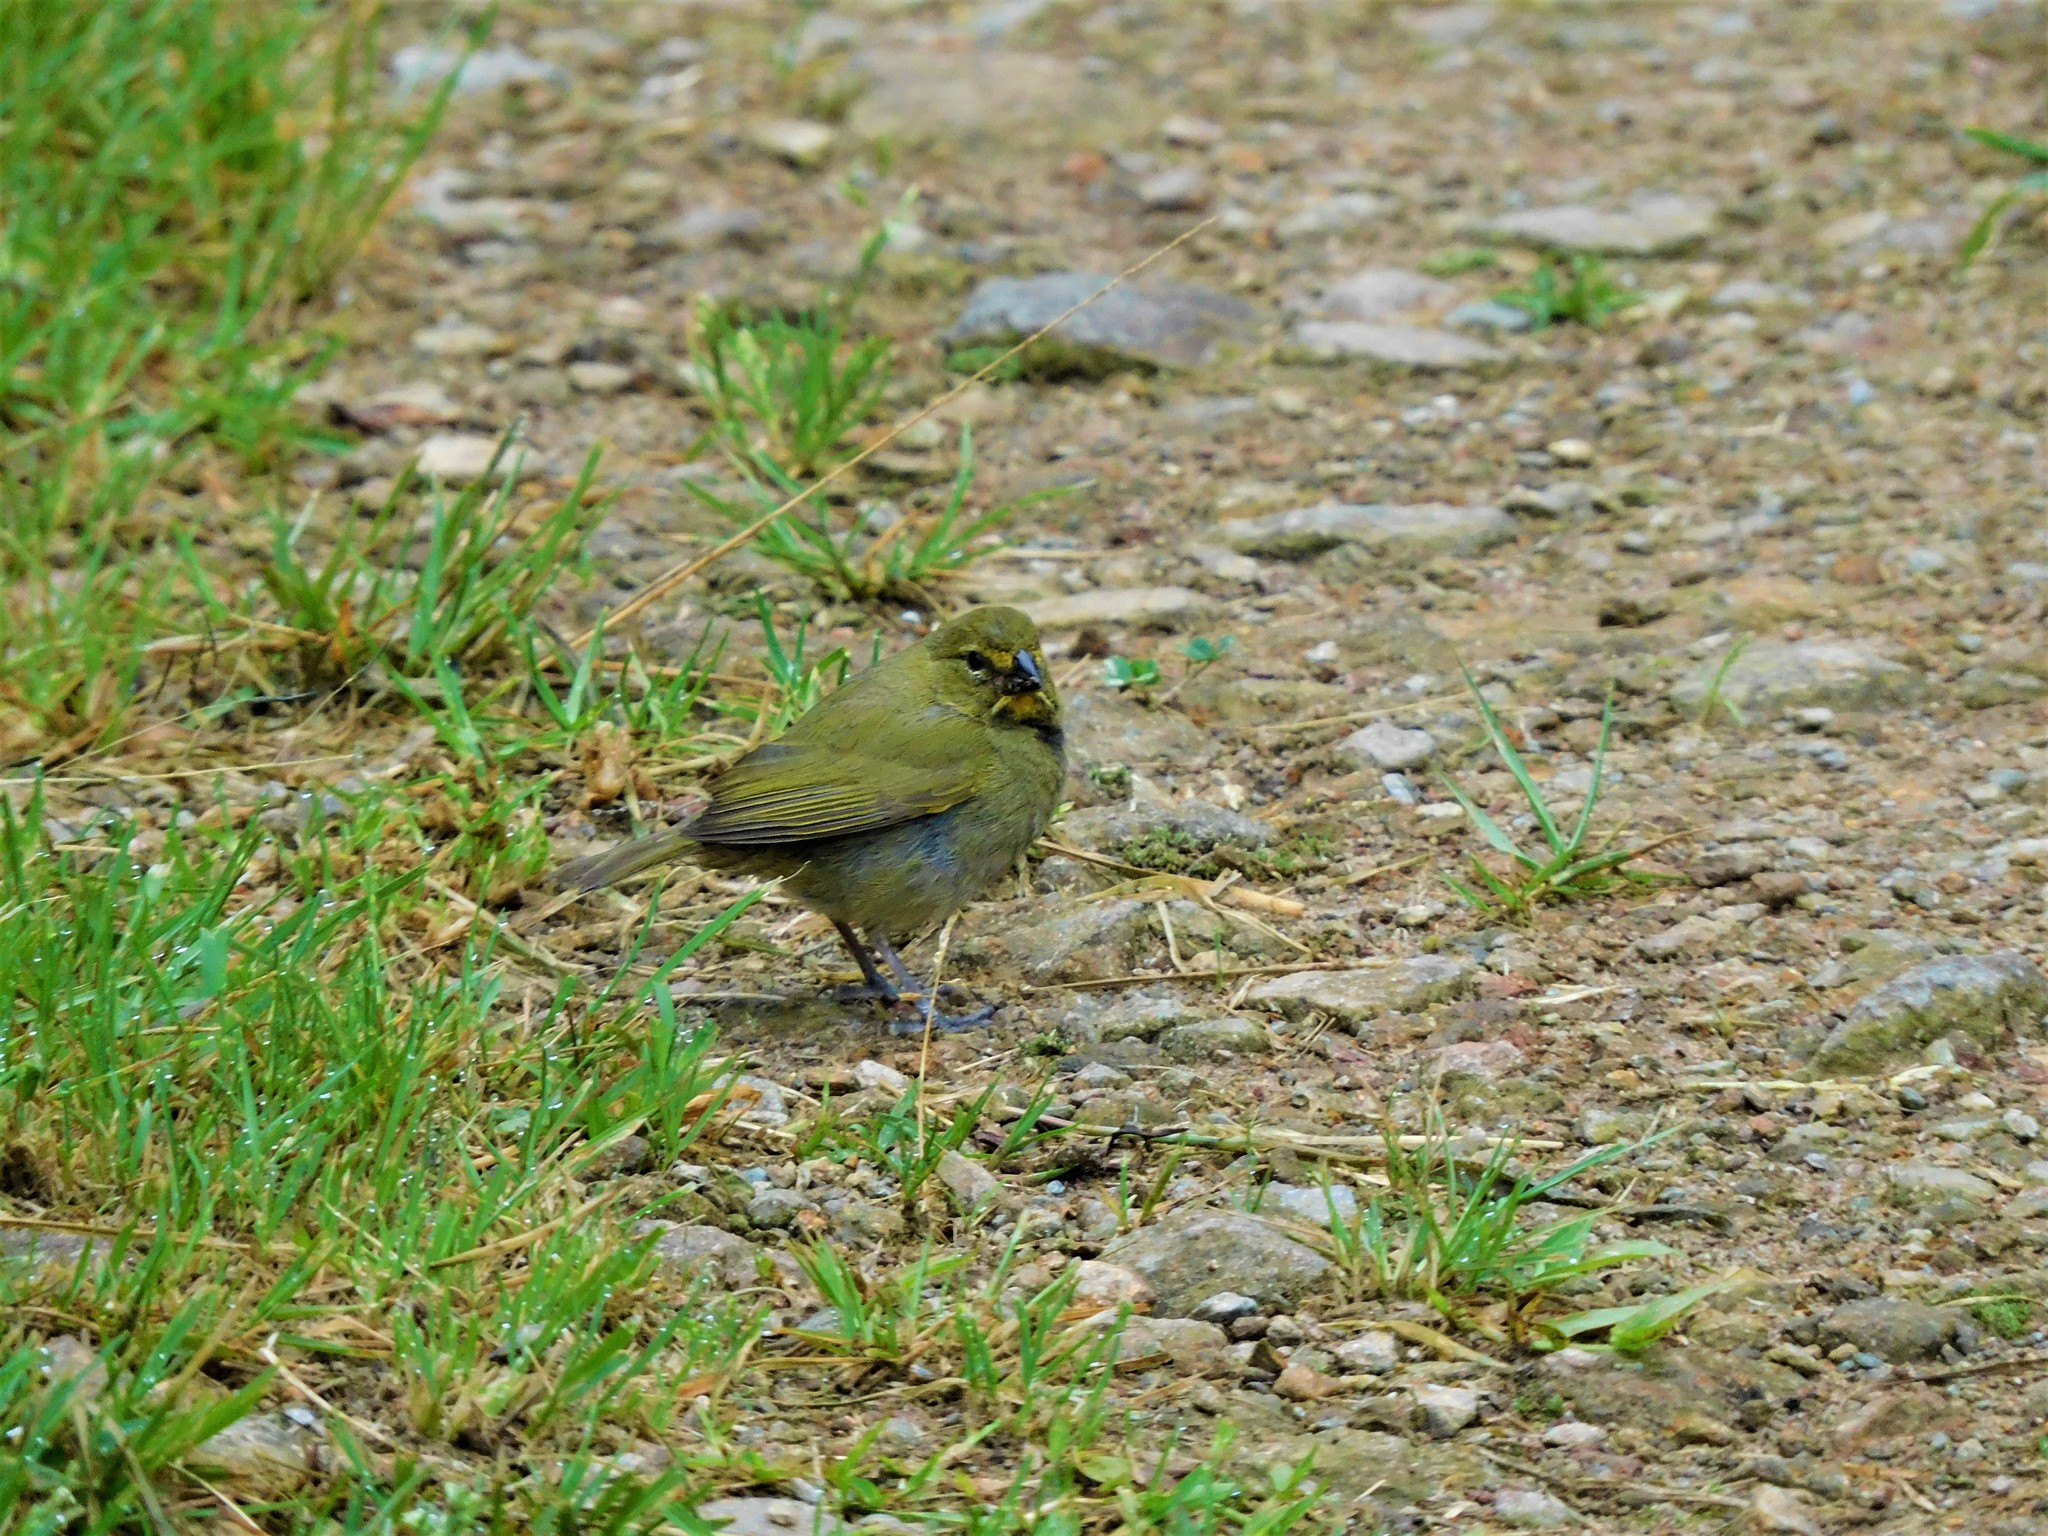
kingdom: Animalia
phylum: Chordata
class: Aves
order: Passeriformes
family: Thraupidae
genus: Tiaris
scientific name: Tiaris olivaceus
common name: Yellow-faced grassquit
